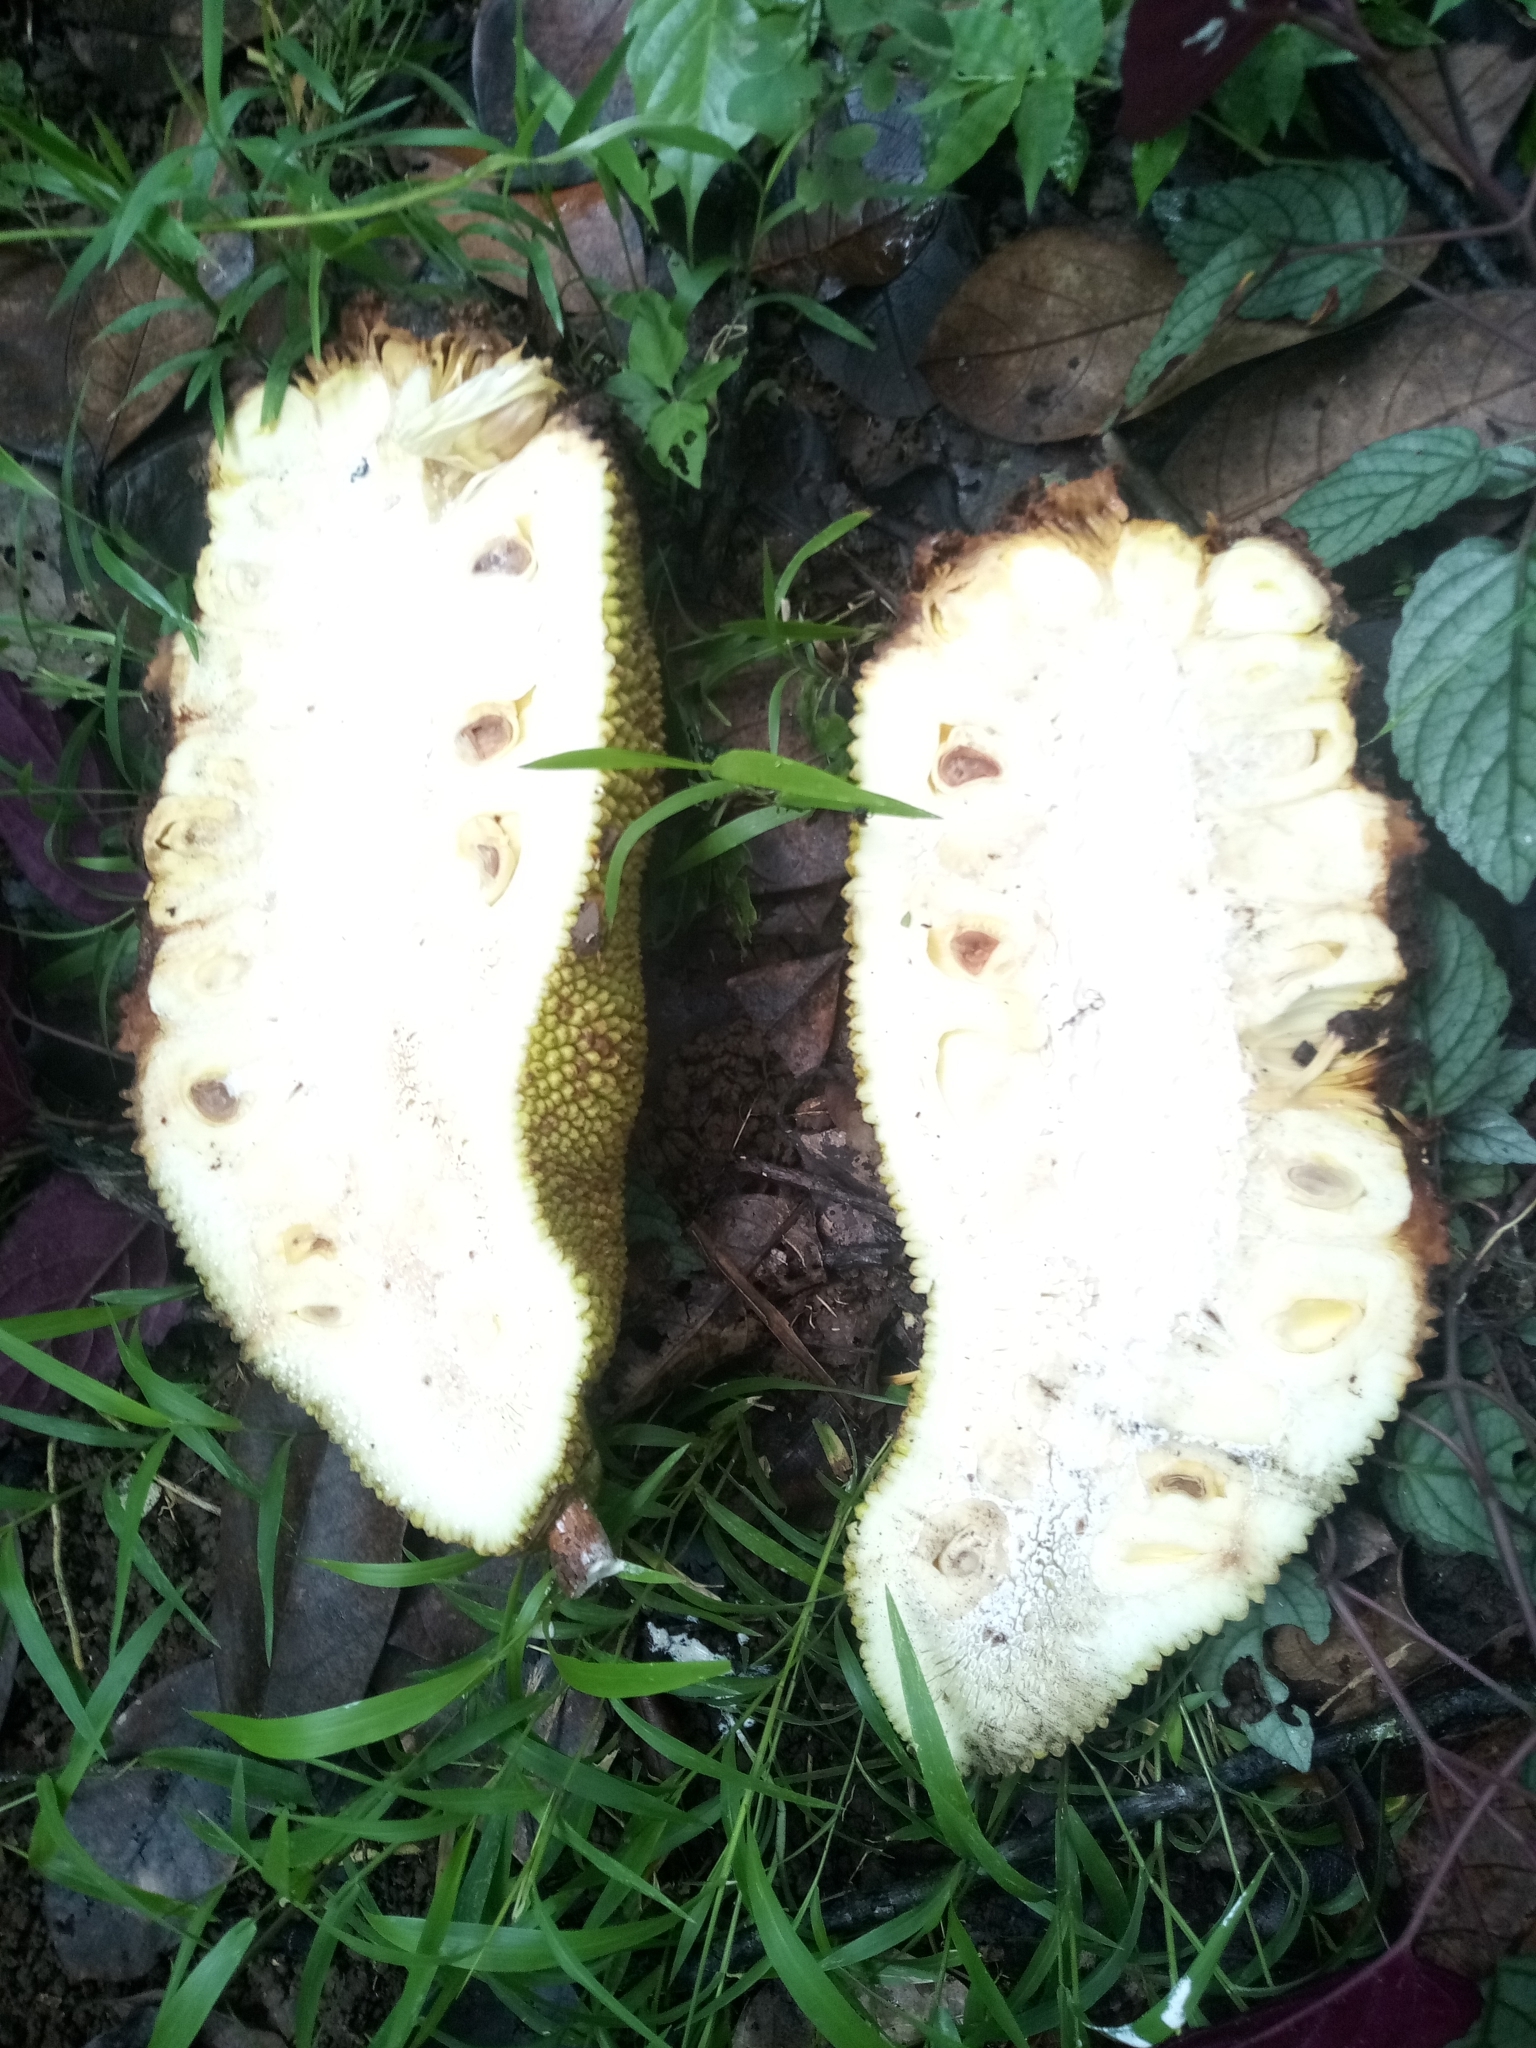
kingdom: Plantae
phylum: Tracheophyta
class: Magnoliopsida
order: Rosales
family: Moraceae
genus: Artocarpus
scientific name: Artocarpus heterophyllus
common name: Jackfruit
